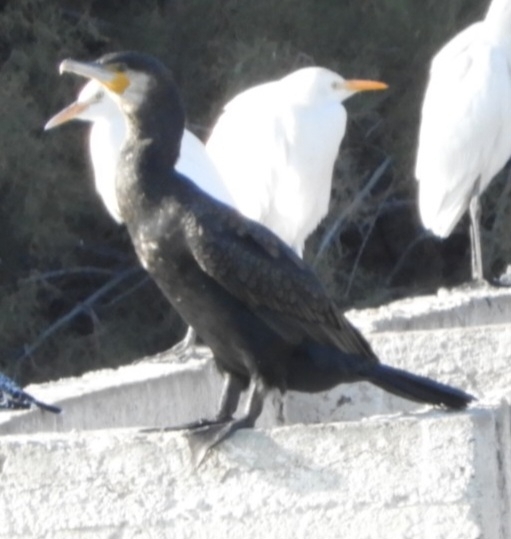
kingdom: Animalia
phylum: Chordata
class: Aves
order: Suliformes
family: Phalacrocoracidae
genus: Phalacrocorax
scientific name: Phalacrocorax carbo
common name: Great cormorant
